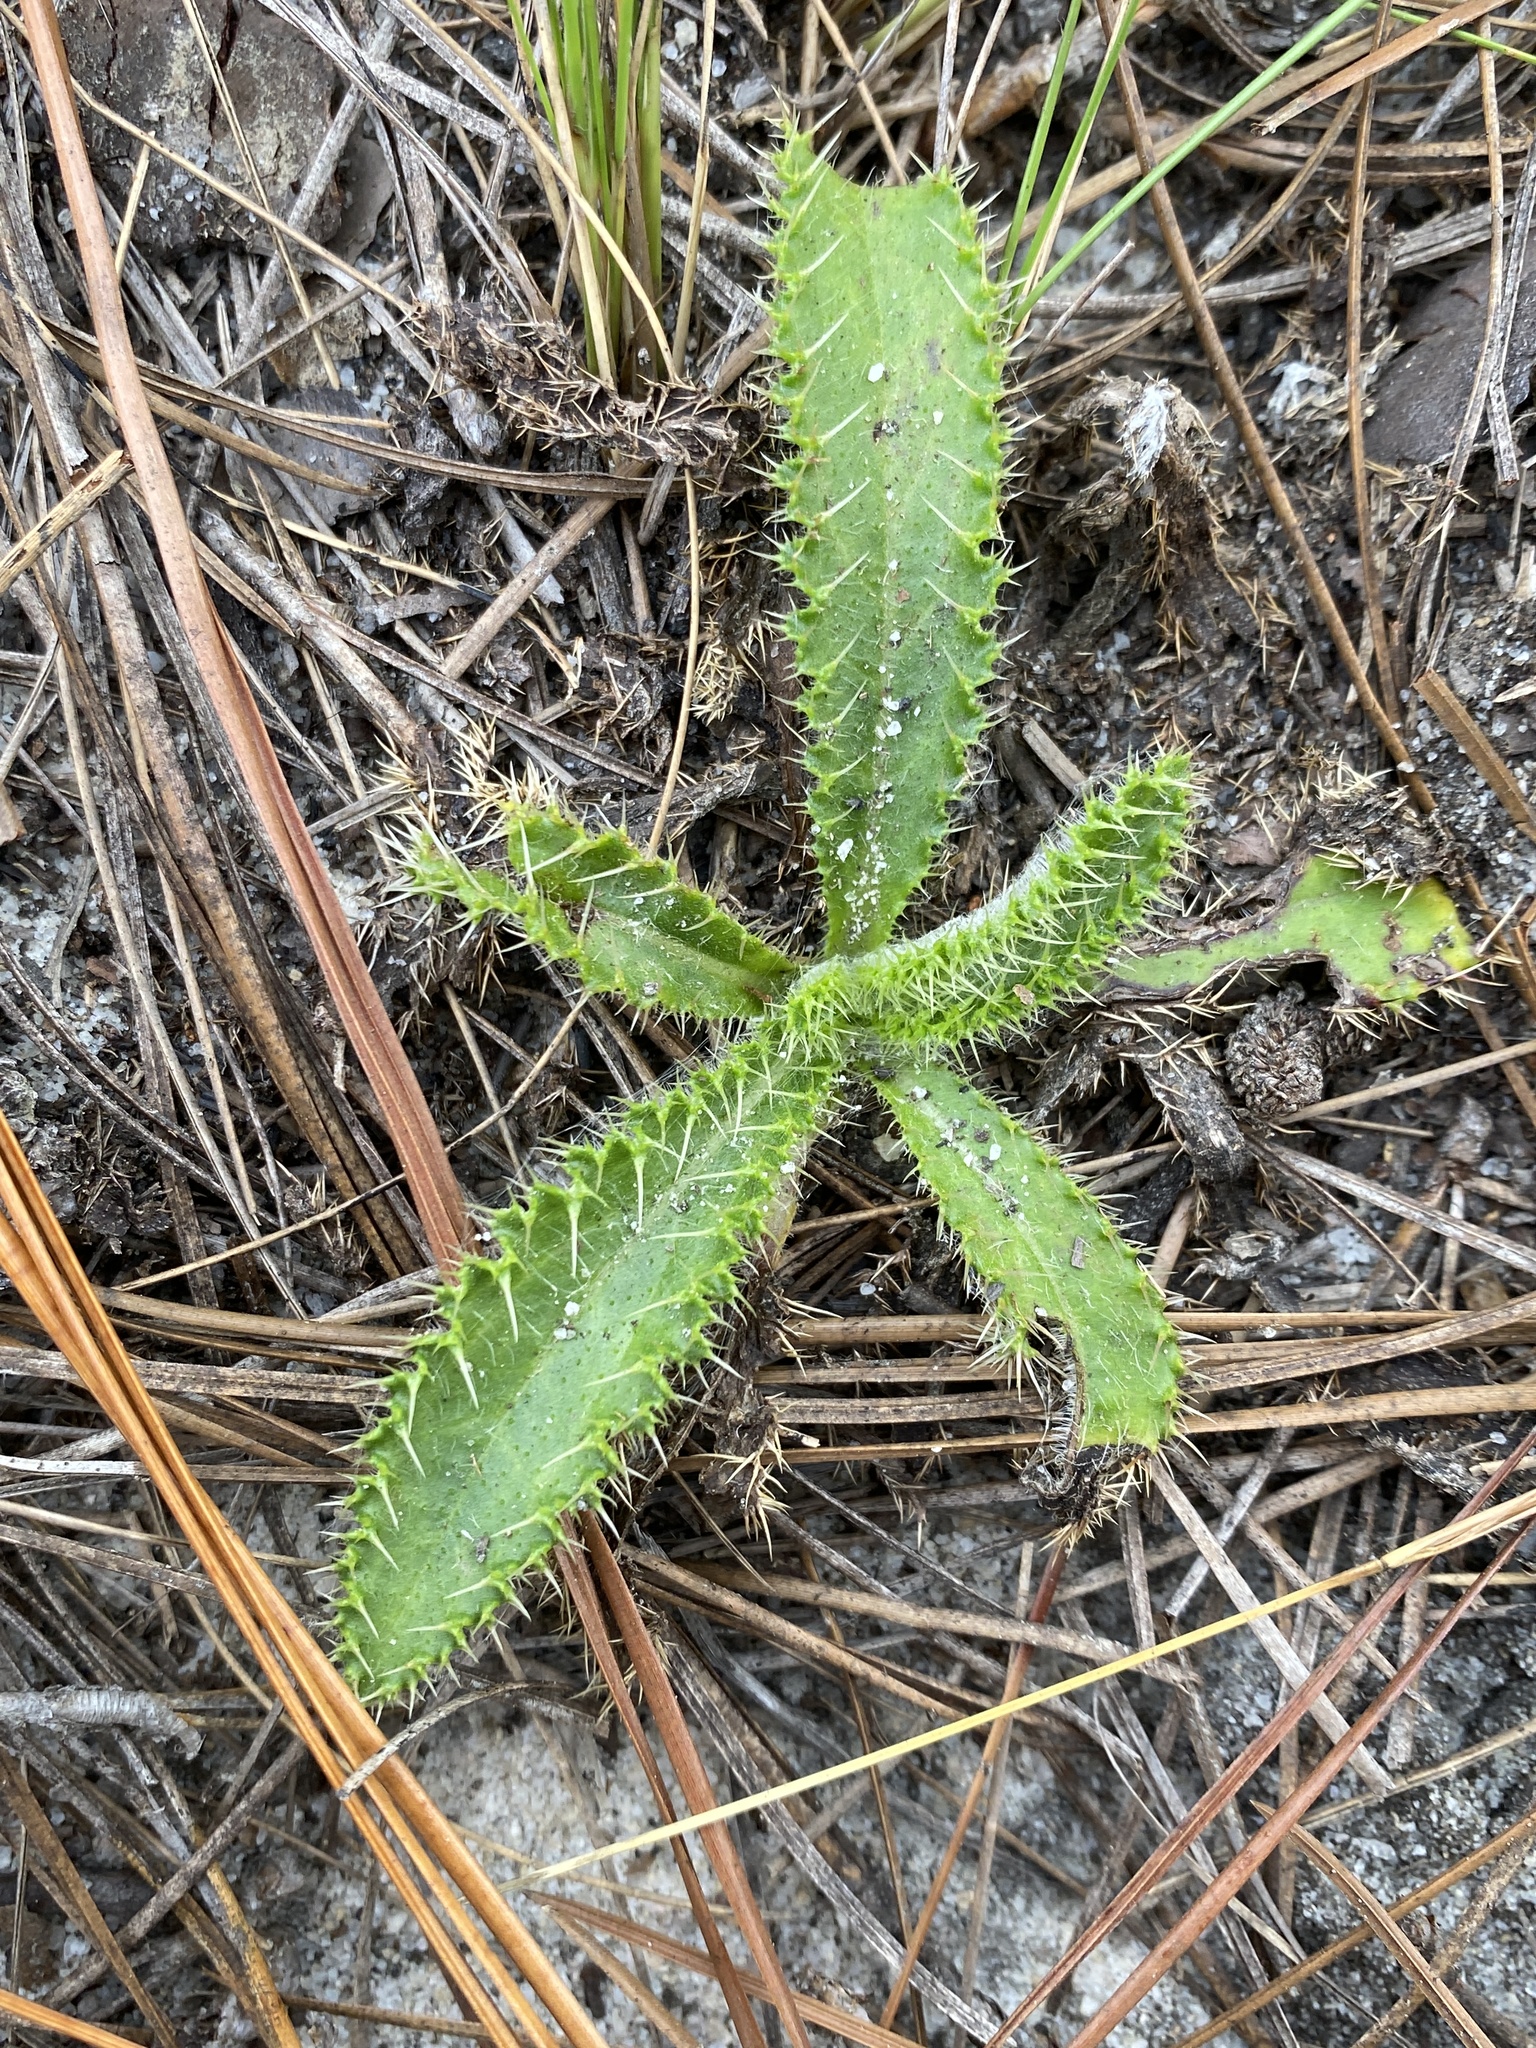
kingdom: Plantae
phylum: Tracheophyta
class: Magnoliopsida
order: Asterales
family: Asteraceae
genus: Cirsium
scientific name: Cirsium repandum
